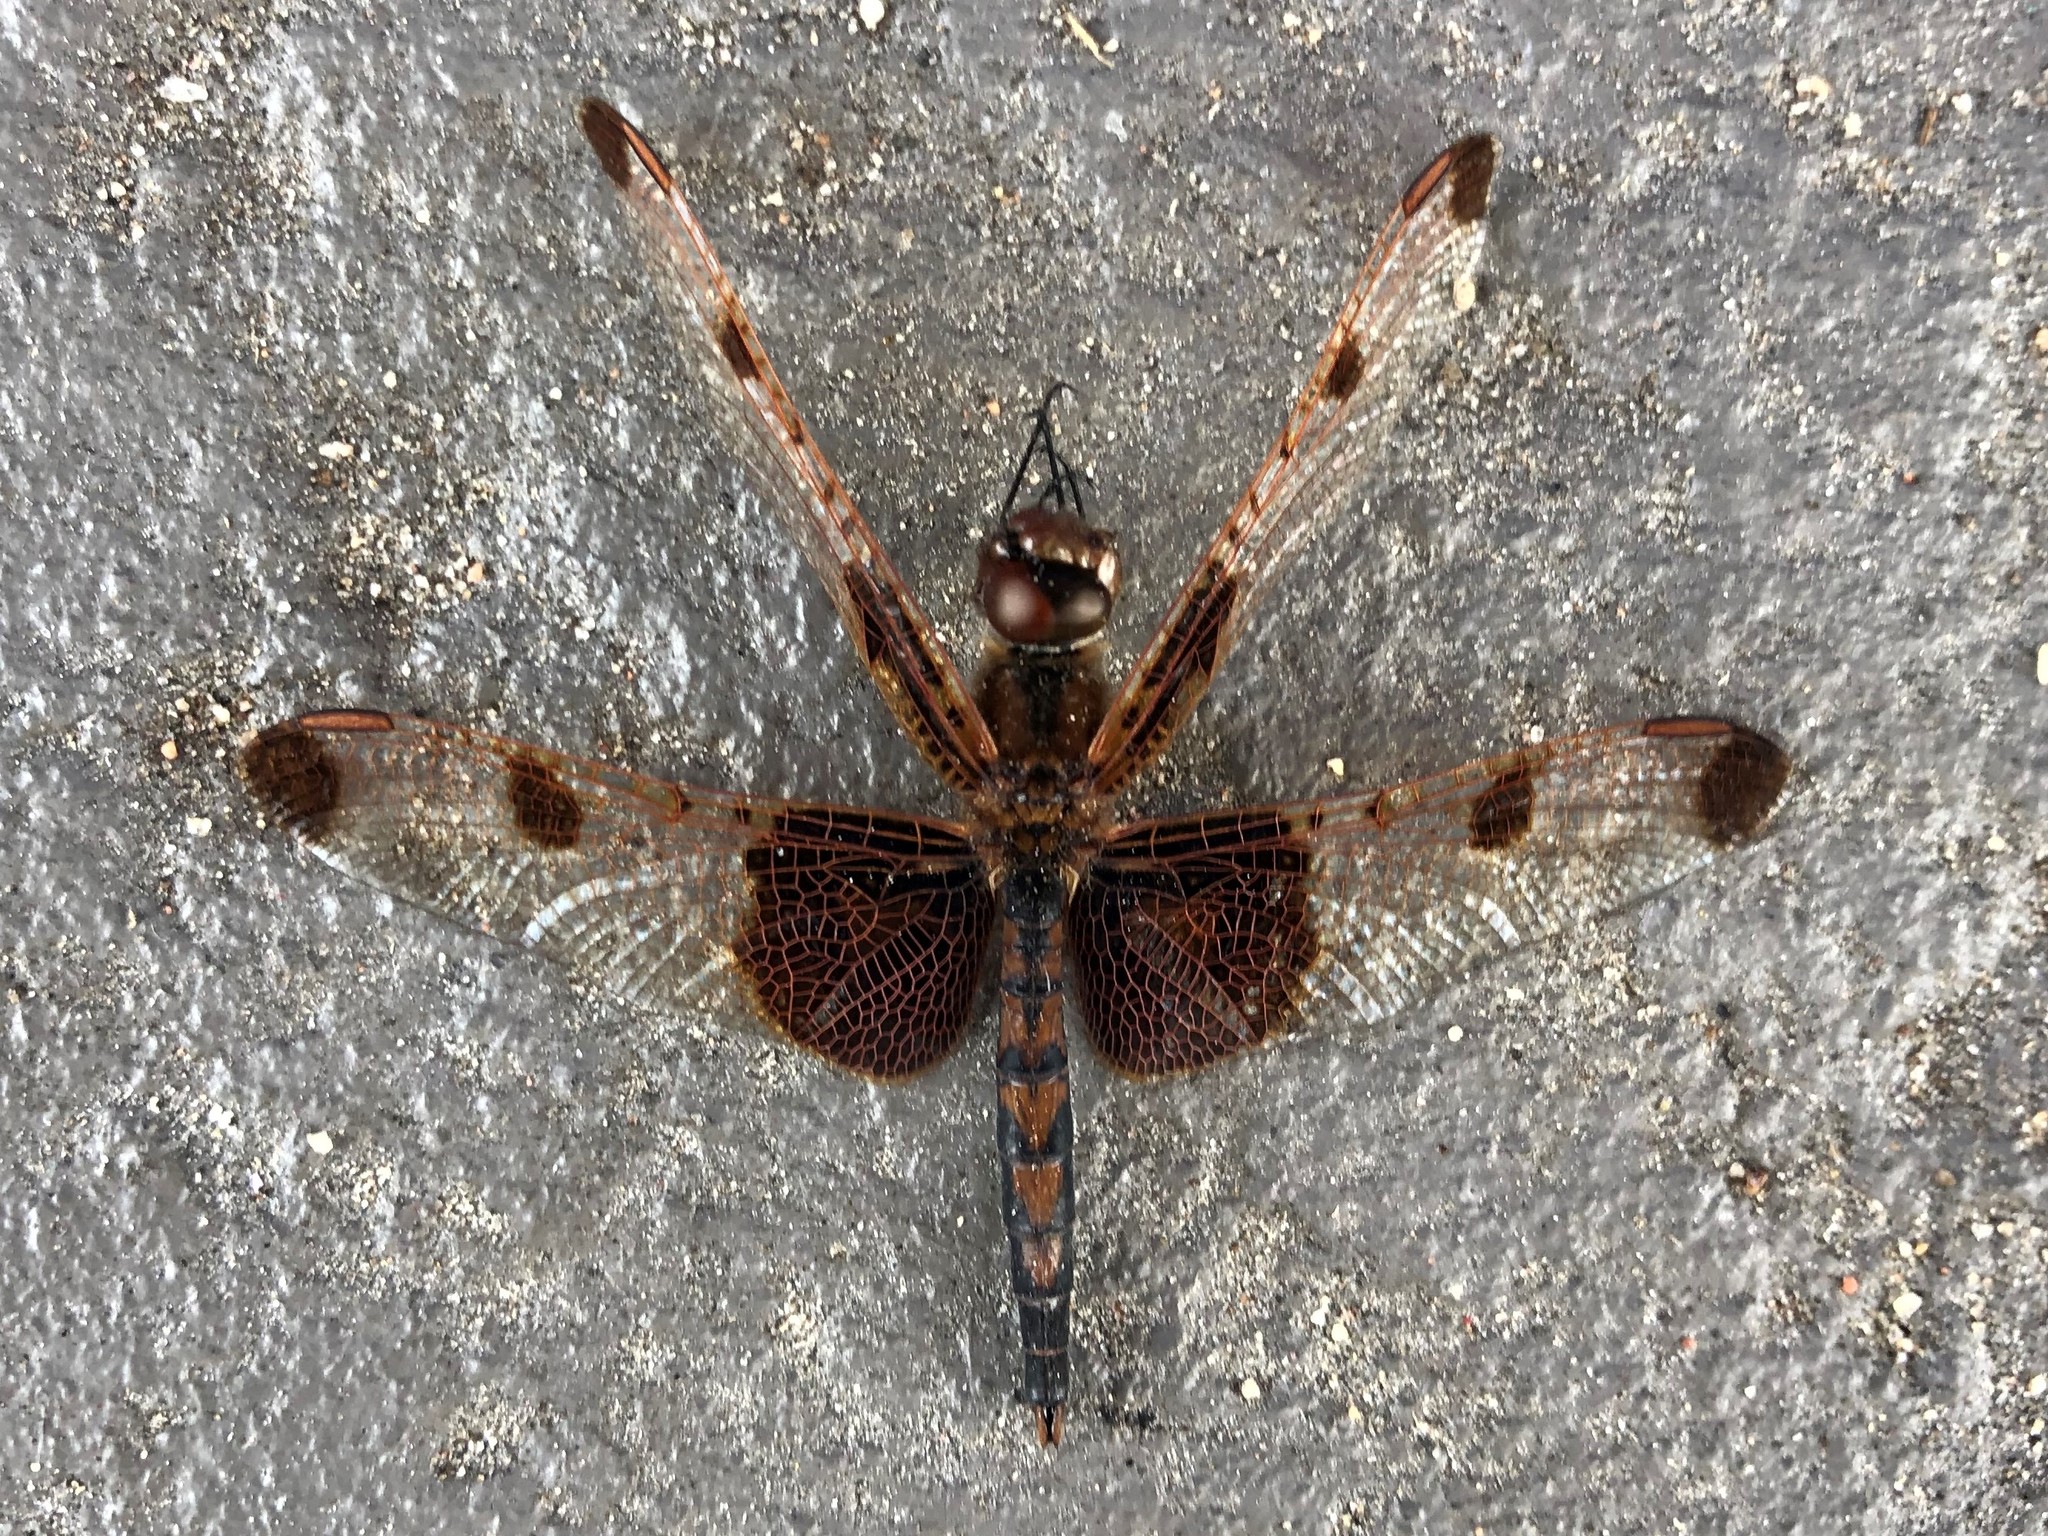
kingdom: Animalia
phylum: Arthropoda
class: Insecta
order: Odonata
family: Libellulidae
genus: Celithemis
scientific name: Celithemis elisa
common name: Calico pennant
